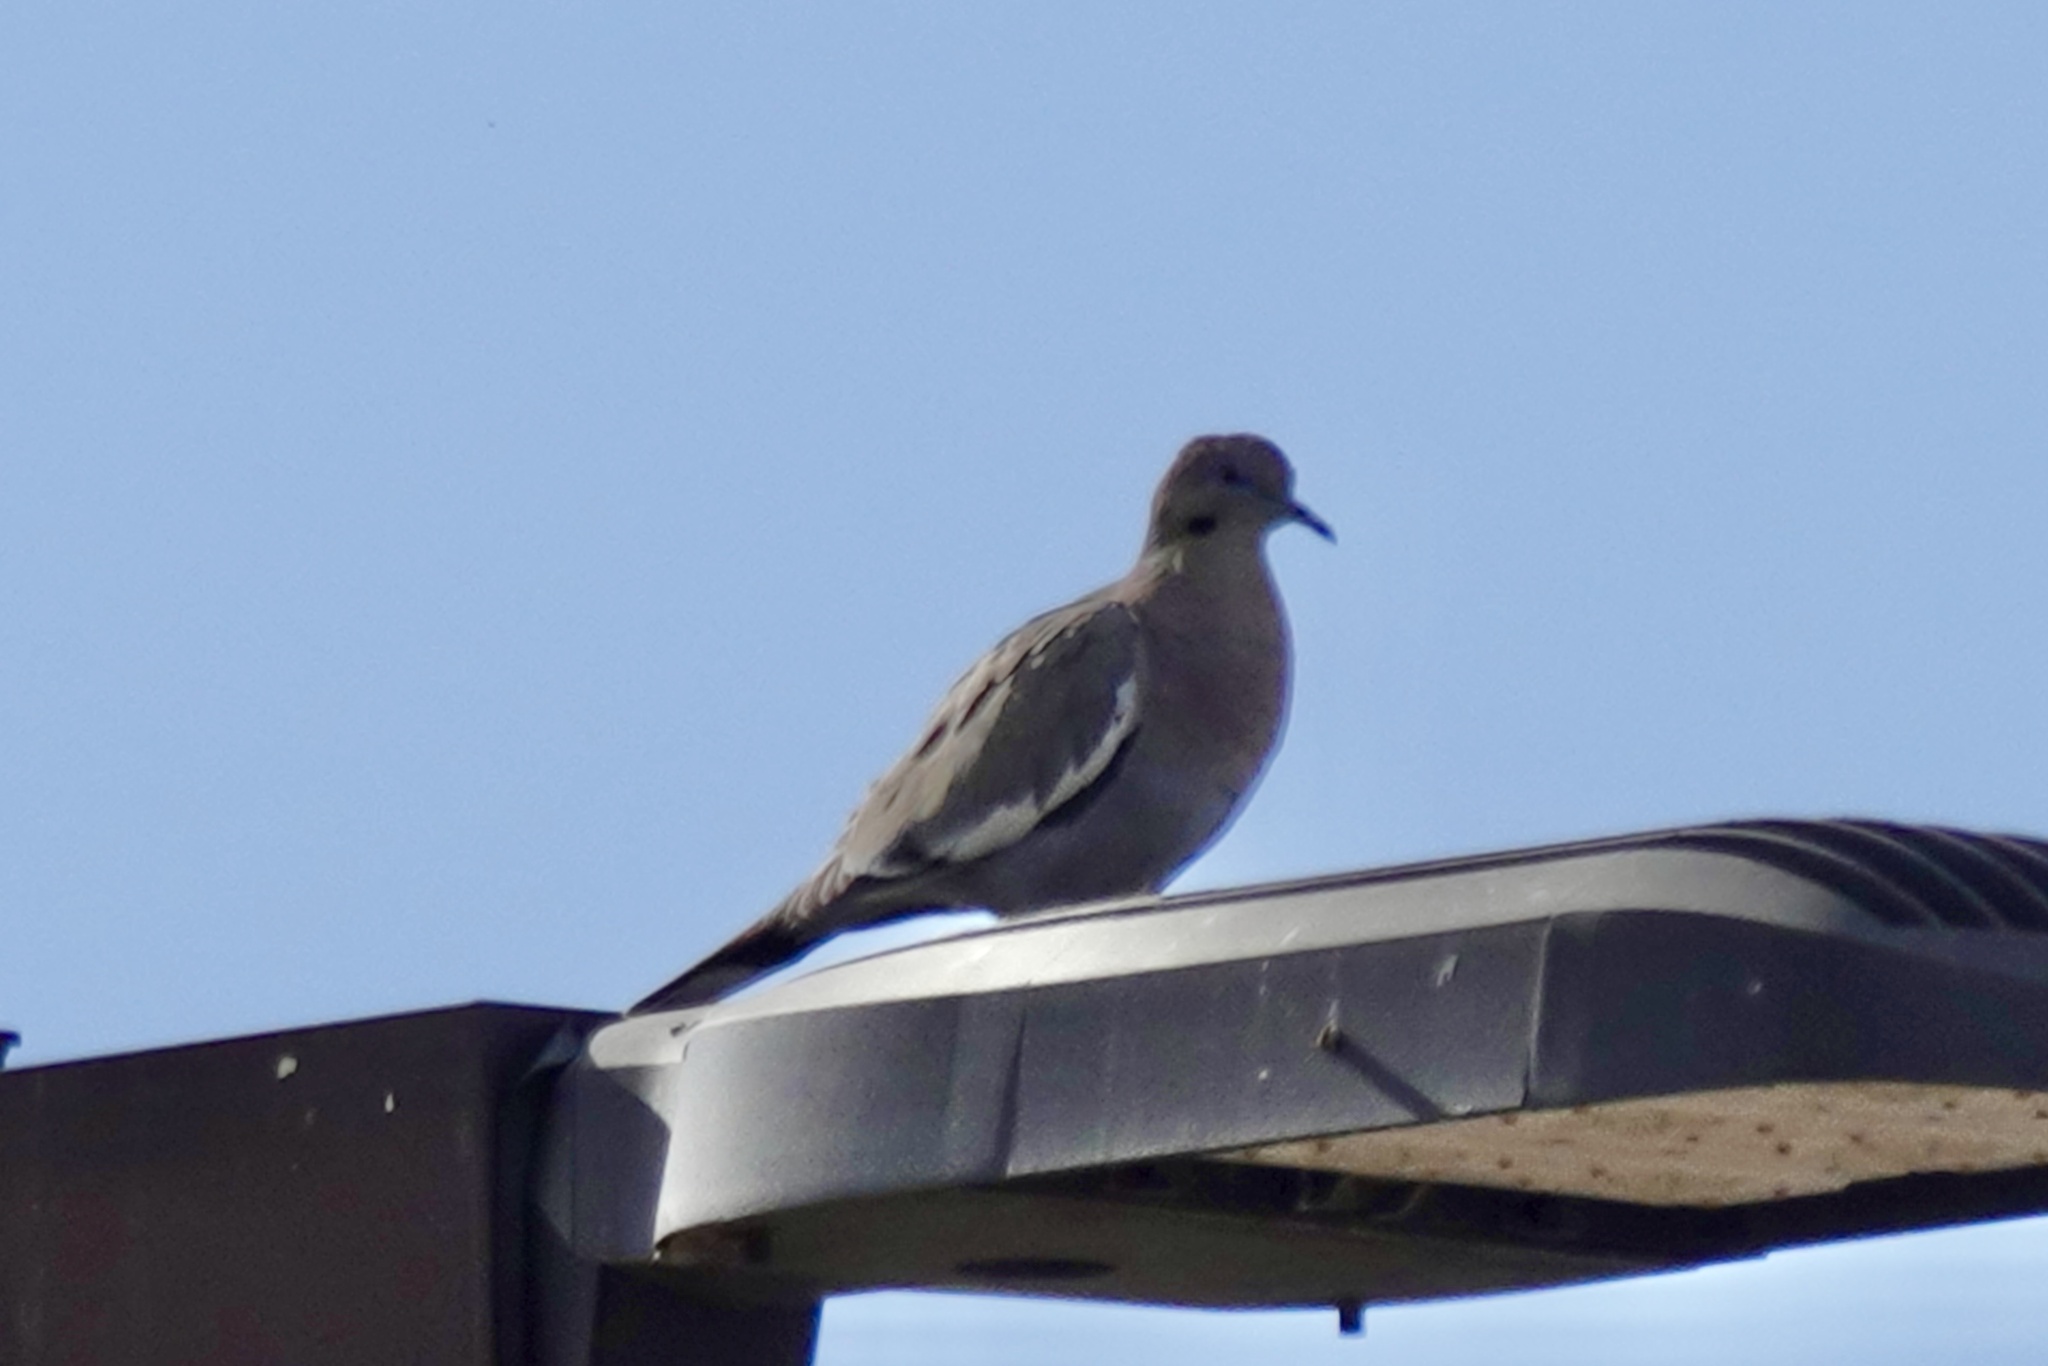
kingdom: Animalia
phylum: Chordata
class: Aves
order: Columbiformes
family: Columbidae
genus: Zenaida
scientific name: Zenaida asiatica
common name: White-winged dove
